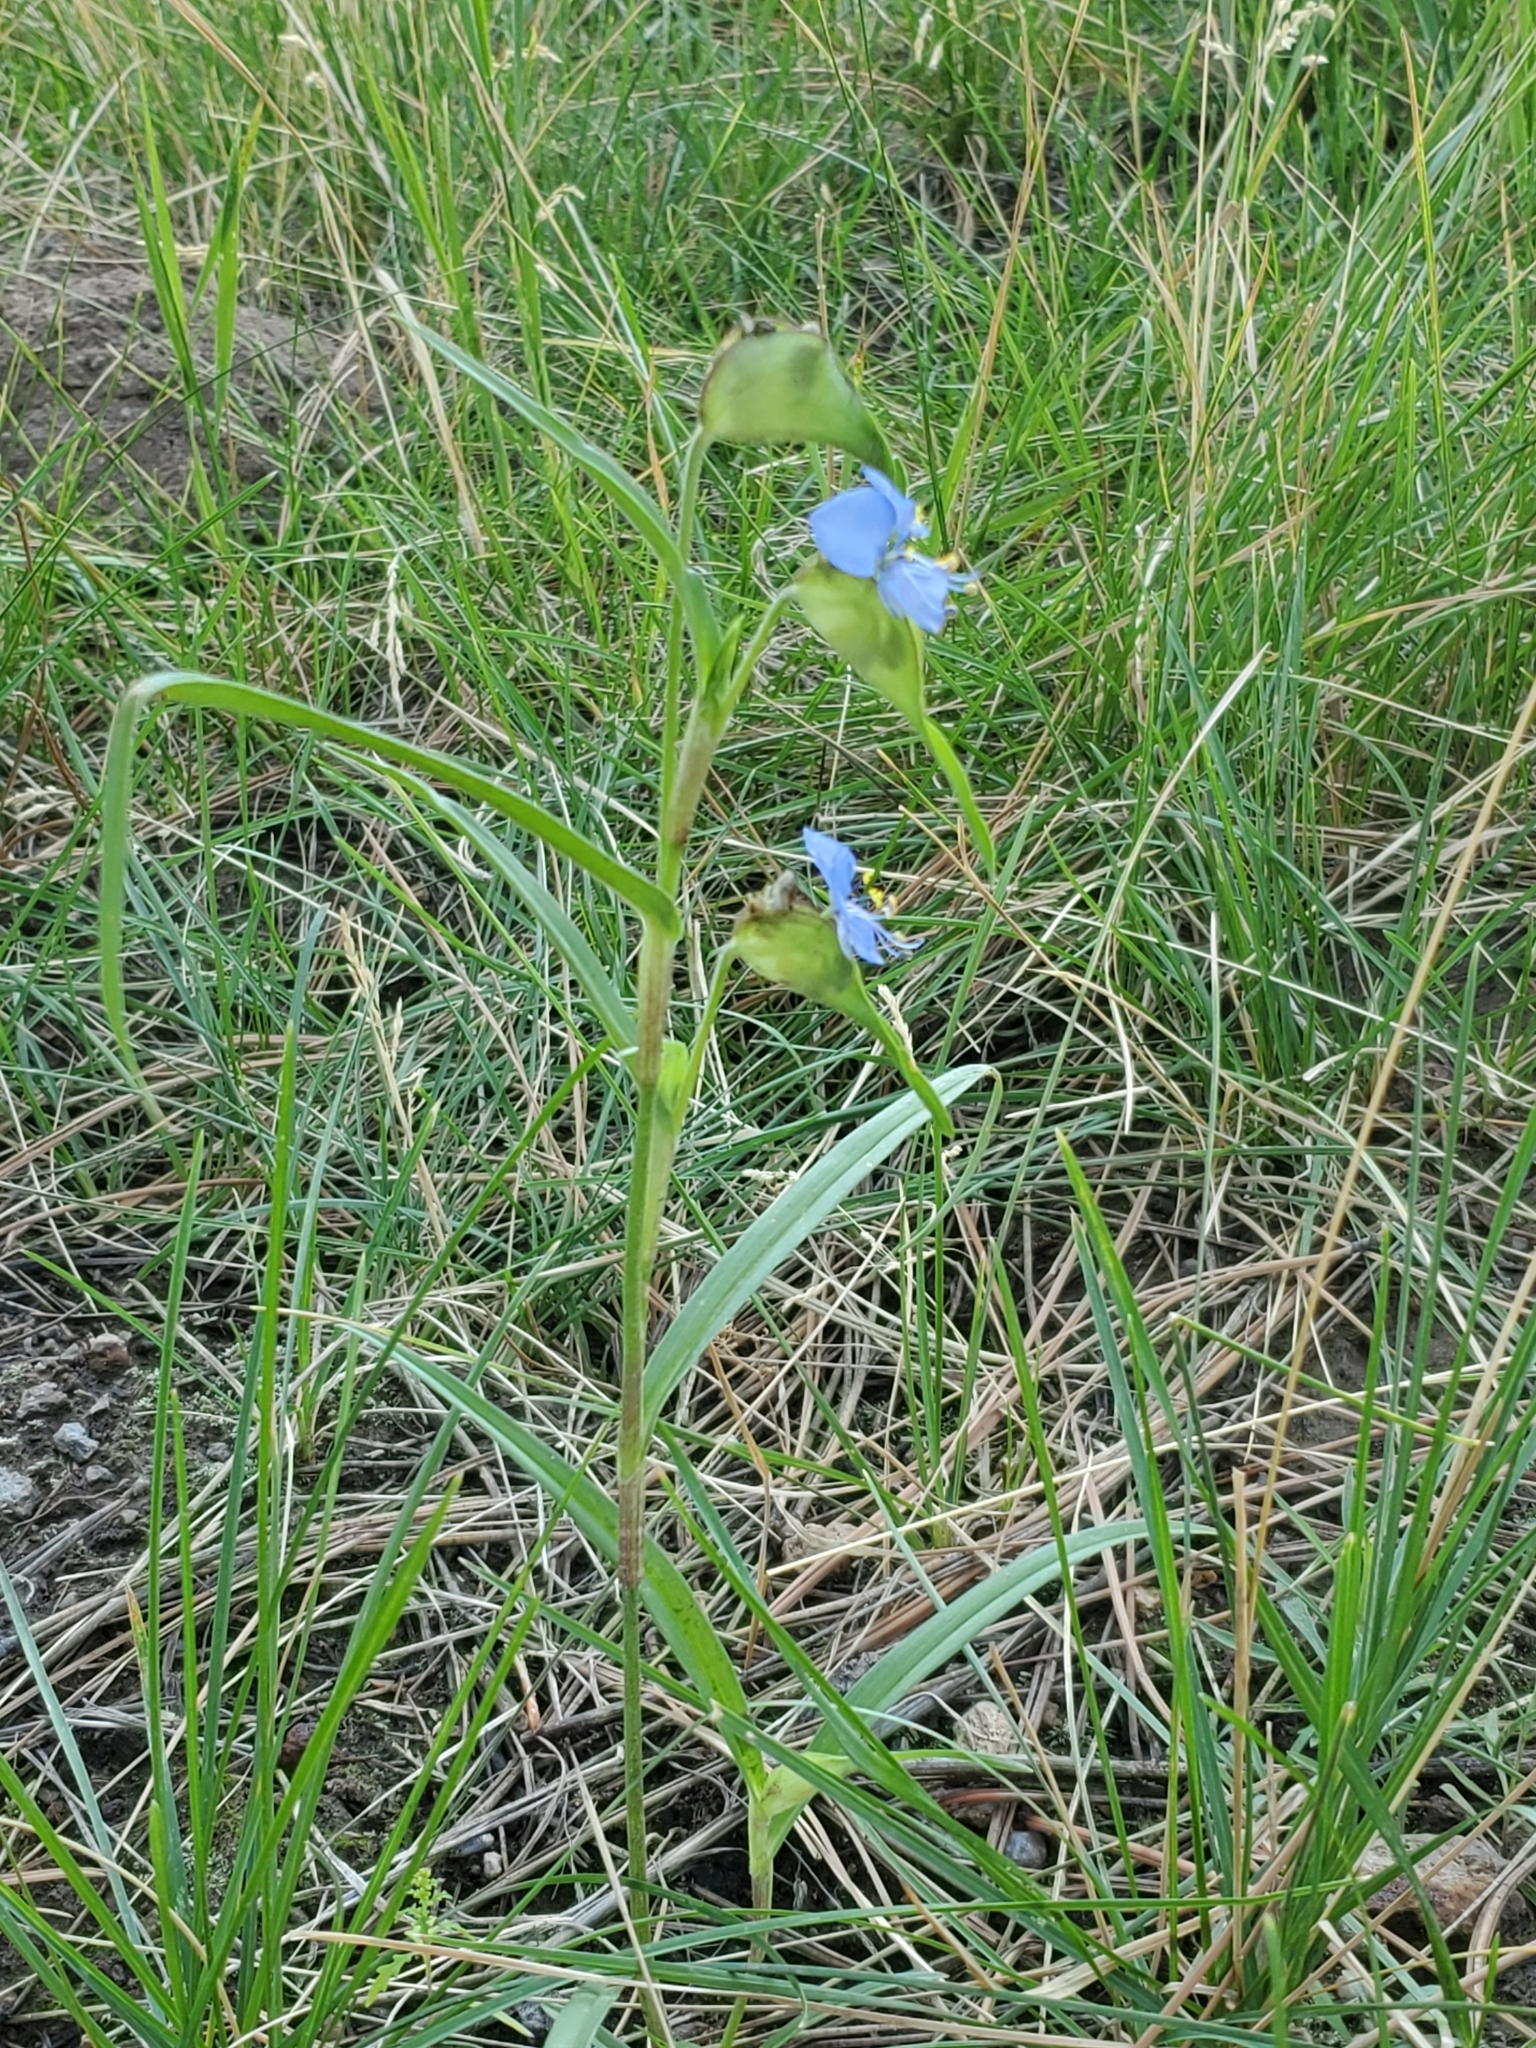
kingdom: Plantae
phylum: Tracheophyta
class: Liliopsida
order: Commelinales
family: Commelinaceae
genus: Commelina
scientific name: Commelina dianthifolia
